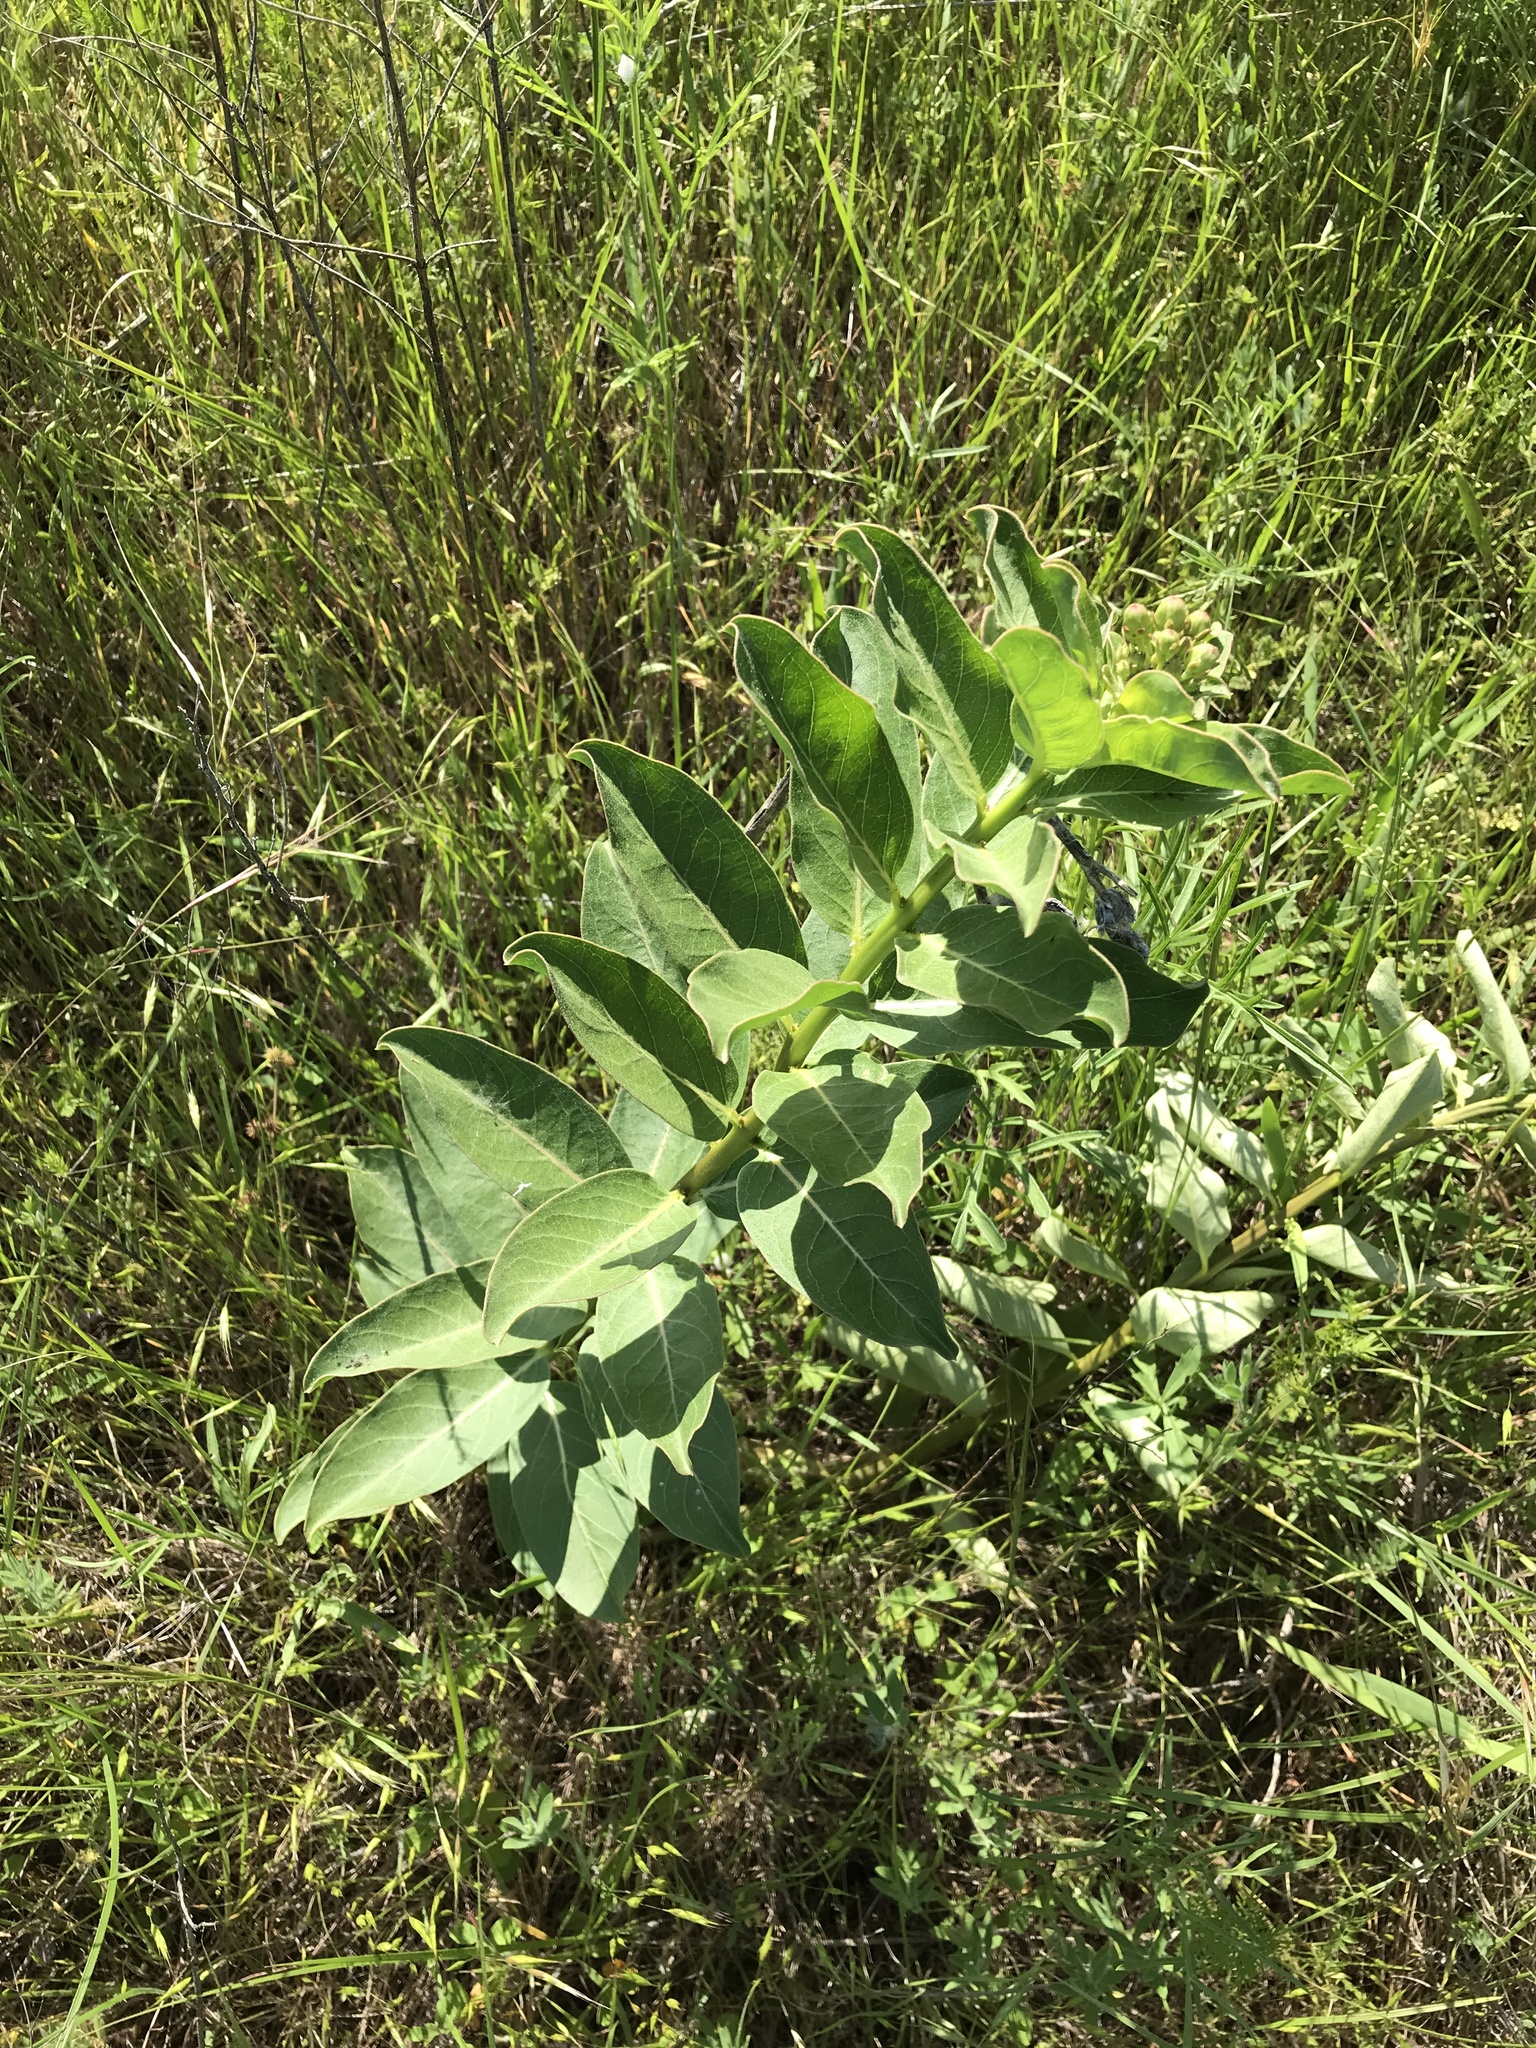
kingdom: Plantae
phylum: Tracheophyta
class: Magnoliopsida
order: Gentianales
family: Apocynaceae
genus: Asclepias
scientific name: Asclepias viridis
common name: Antelope-horns
